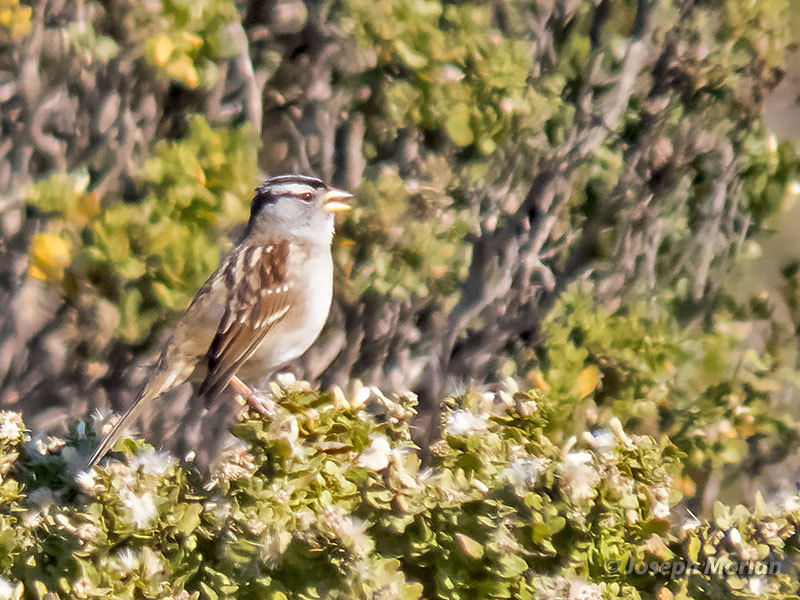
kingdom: Animalia
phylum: Chordata
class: Aves
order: Passeriformes
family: Passerellidae
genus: Zonotrichia
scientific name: Zonotrichia leucophrys
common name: White-crowned sparrow
